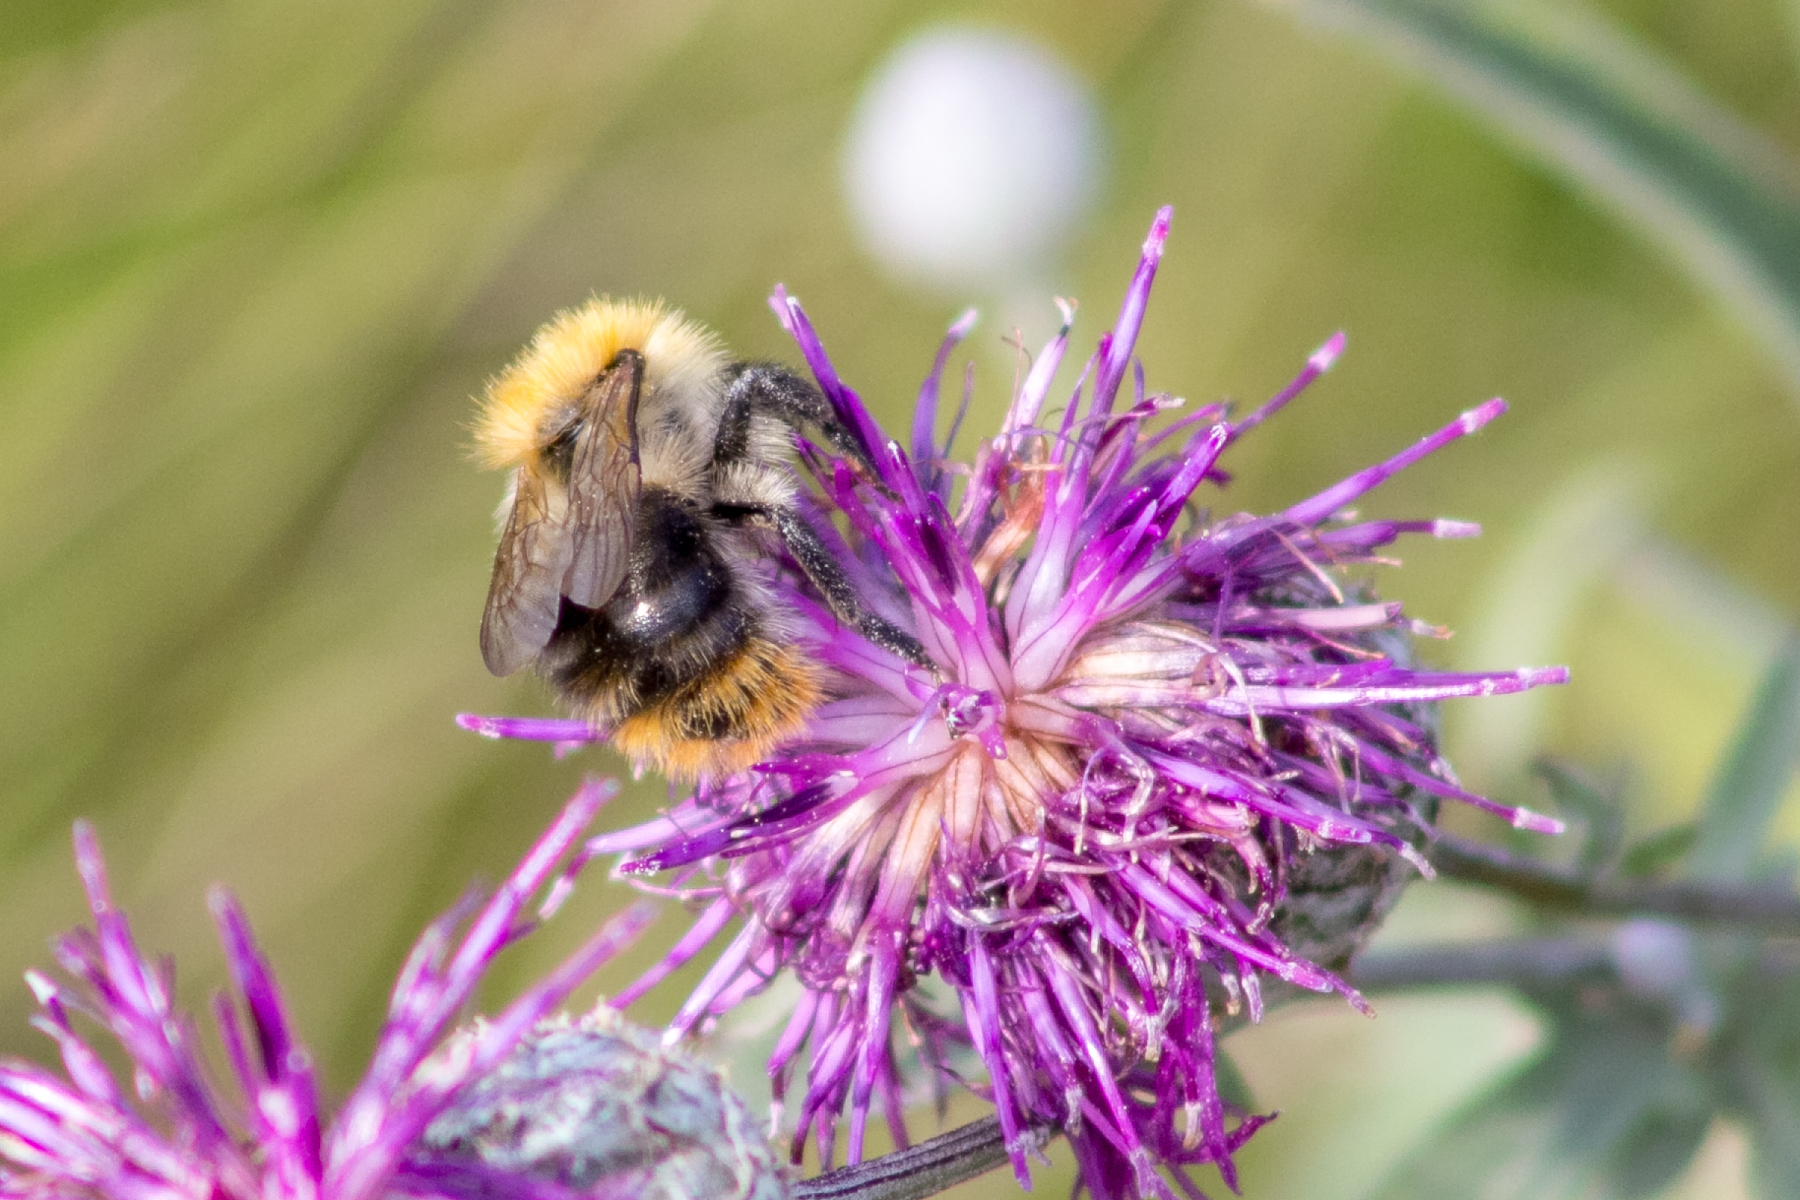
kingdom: Animalia
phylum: Arthropoda
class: Insecta
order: Hymenoptera
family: Apidae
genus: Bombus
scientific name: Bombus pascuorum
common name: Common carder bee
